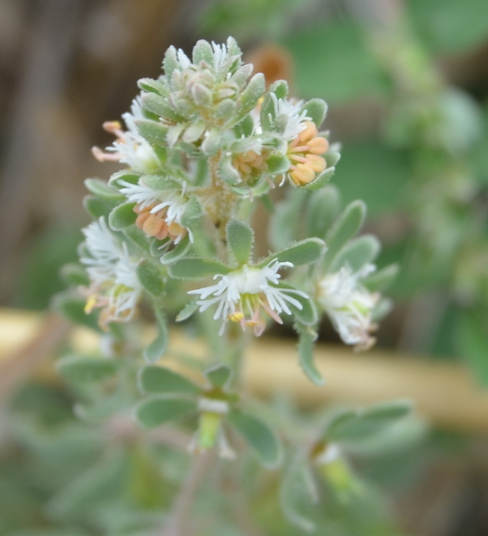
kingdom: Plantae
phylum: Tracheophyta
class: Magnoliopsida
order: Brassicales
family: Resedaceae
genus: Reseda
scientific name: Reseda phyteuma
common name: Corn mignonette
